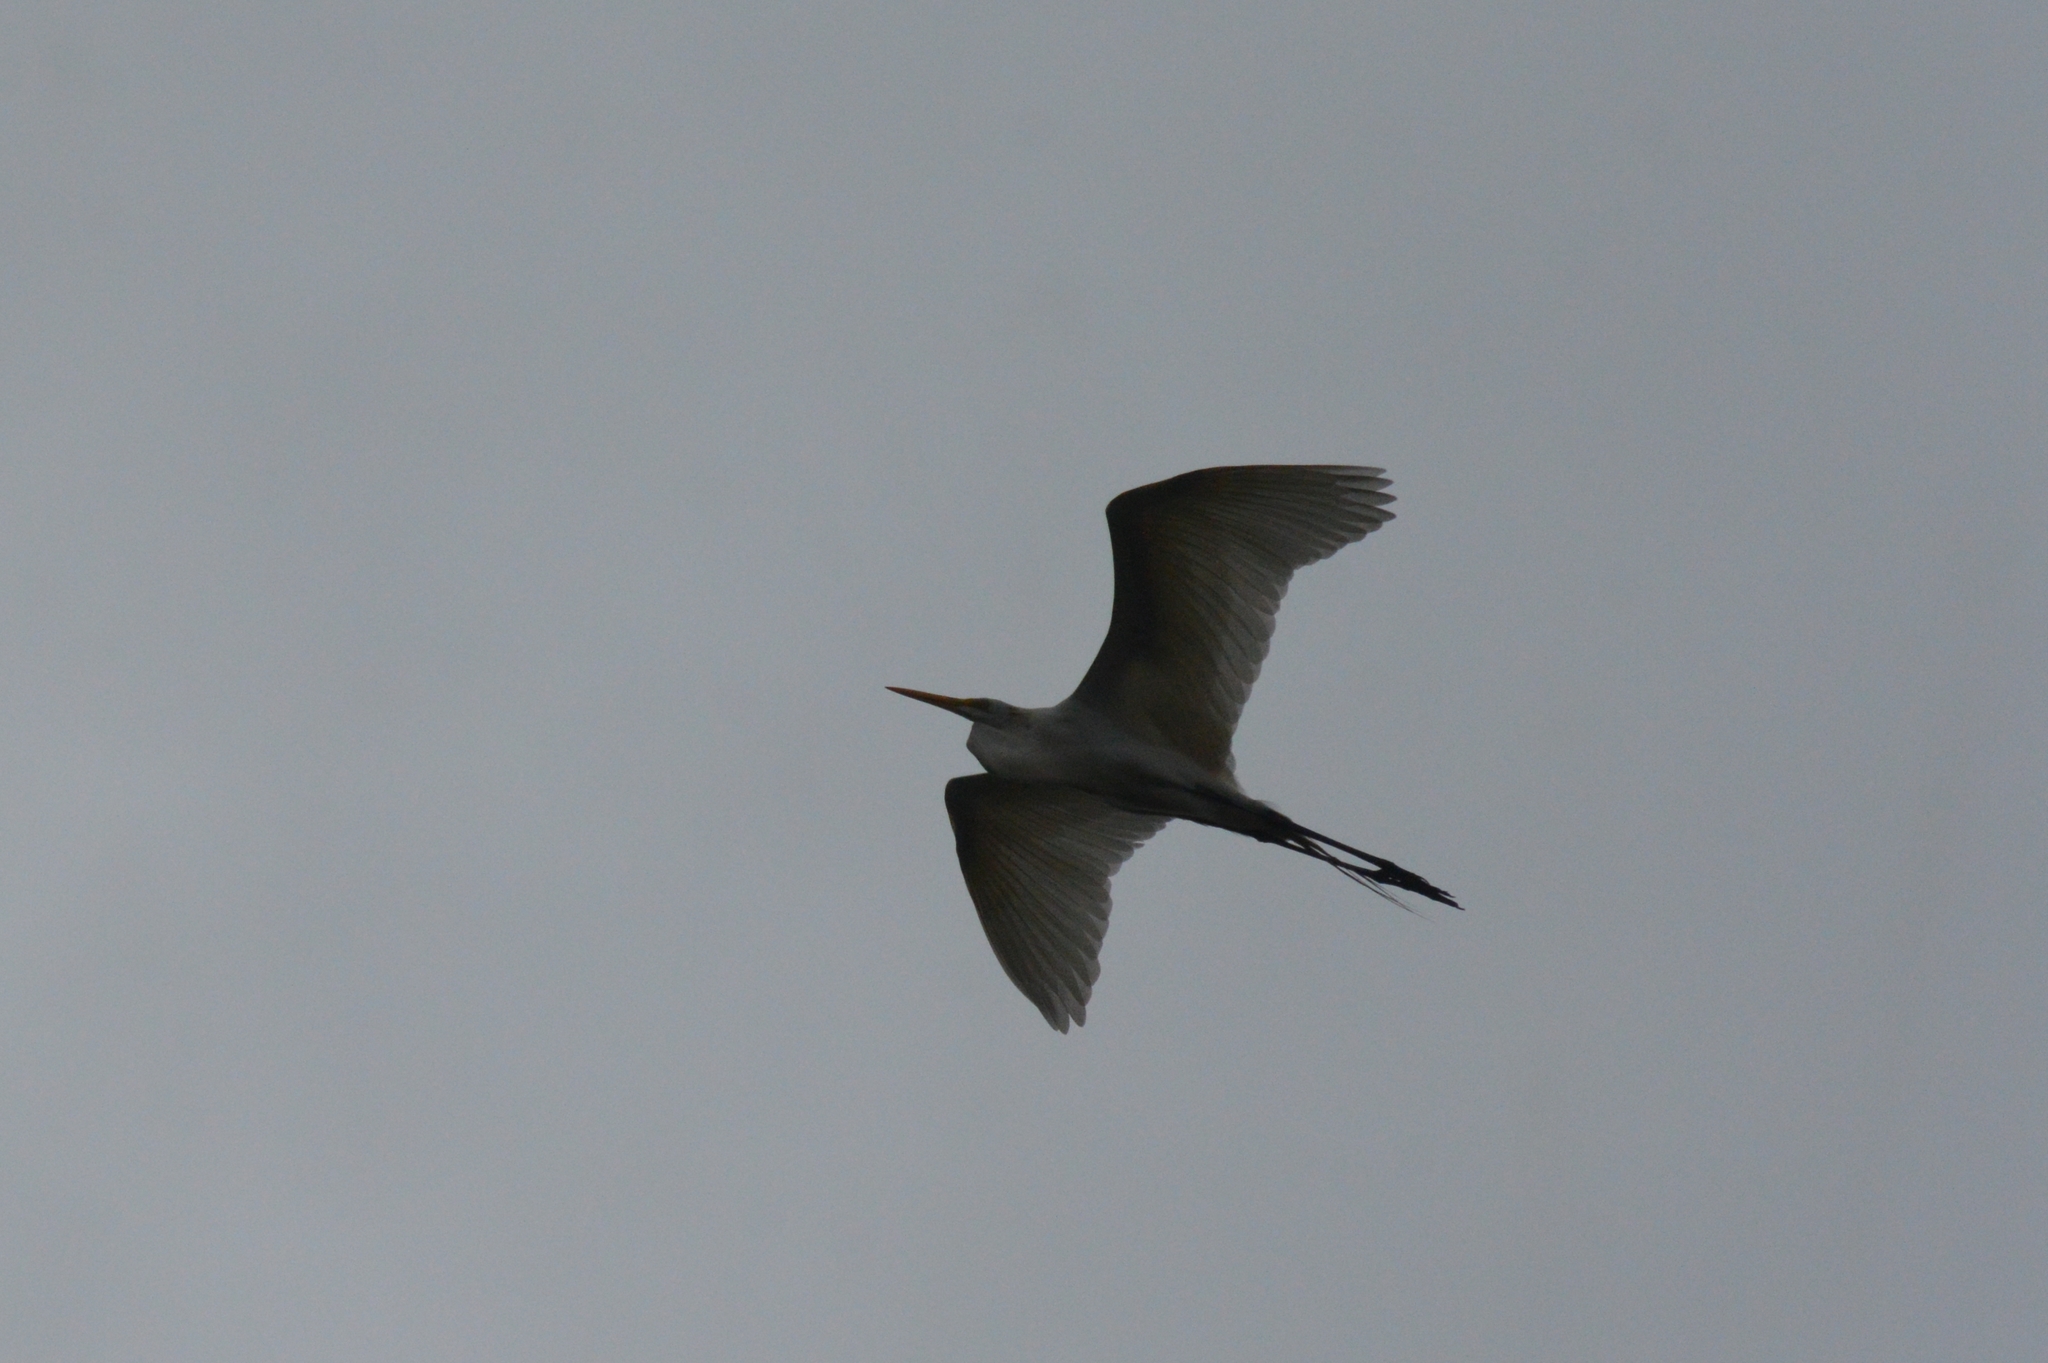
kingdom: Animalia
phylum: Chordata
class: Aves
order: Pelecaniformes
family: Ardeidae
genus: Ardea
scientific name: Ardea alba
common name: Great egret
